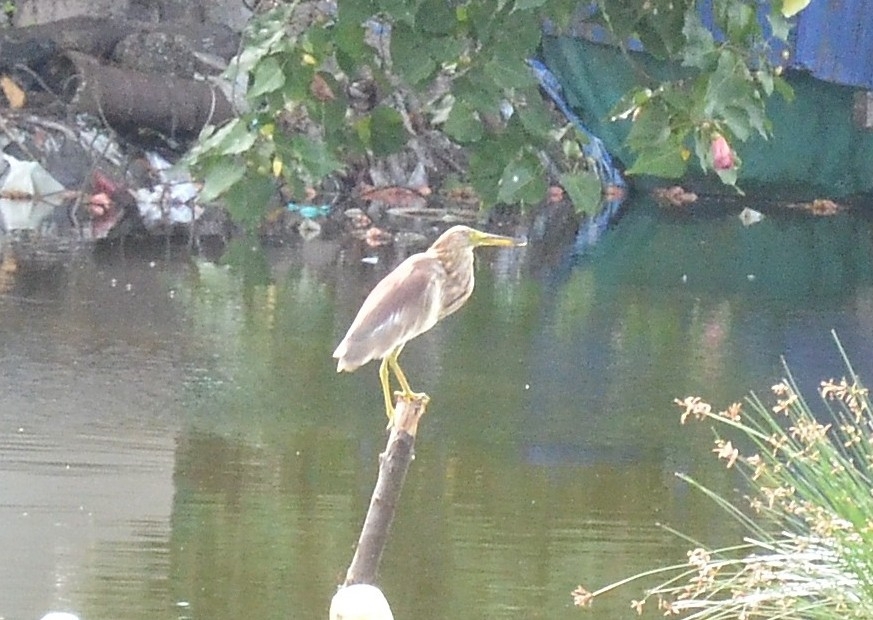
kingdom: Animalia
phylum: Chordata
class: Aves
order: Pelecaniformes
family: Ardeidae
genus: Ardeola
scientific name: Ardeola grayii
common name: Indian pond heron
